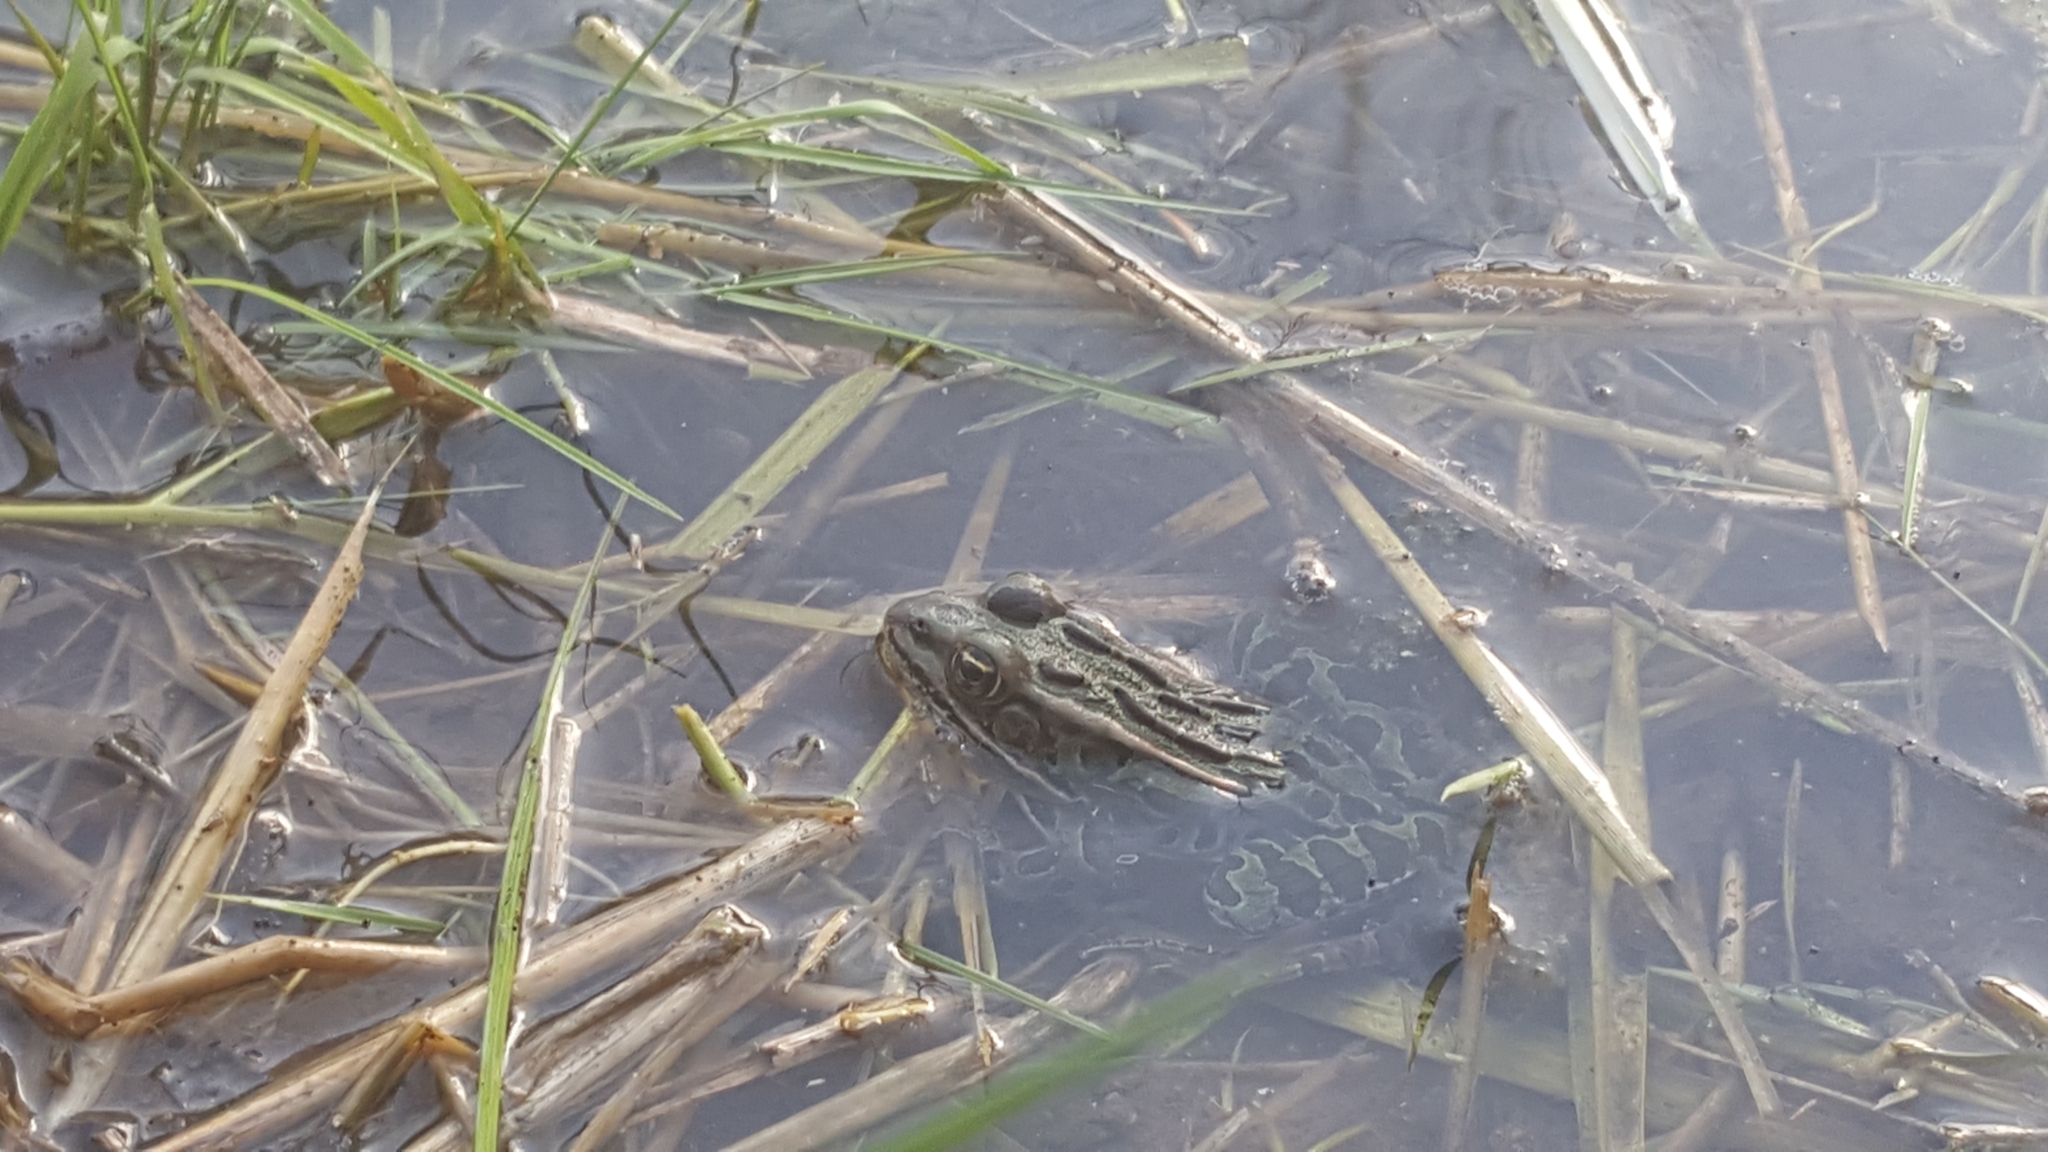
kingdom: Animalia
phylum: Chordata
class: Amphibia
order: Anura
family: Ranidae
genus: Lithobates
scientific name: Lithobates pipiens
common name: Northern leopard frog
